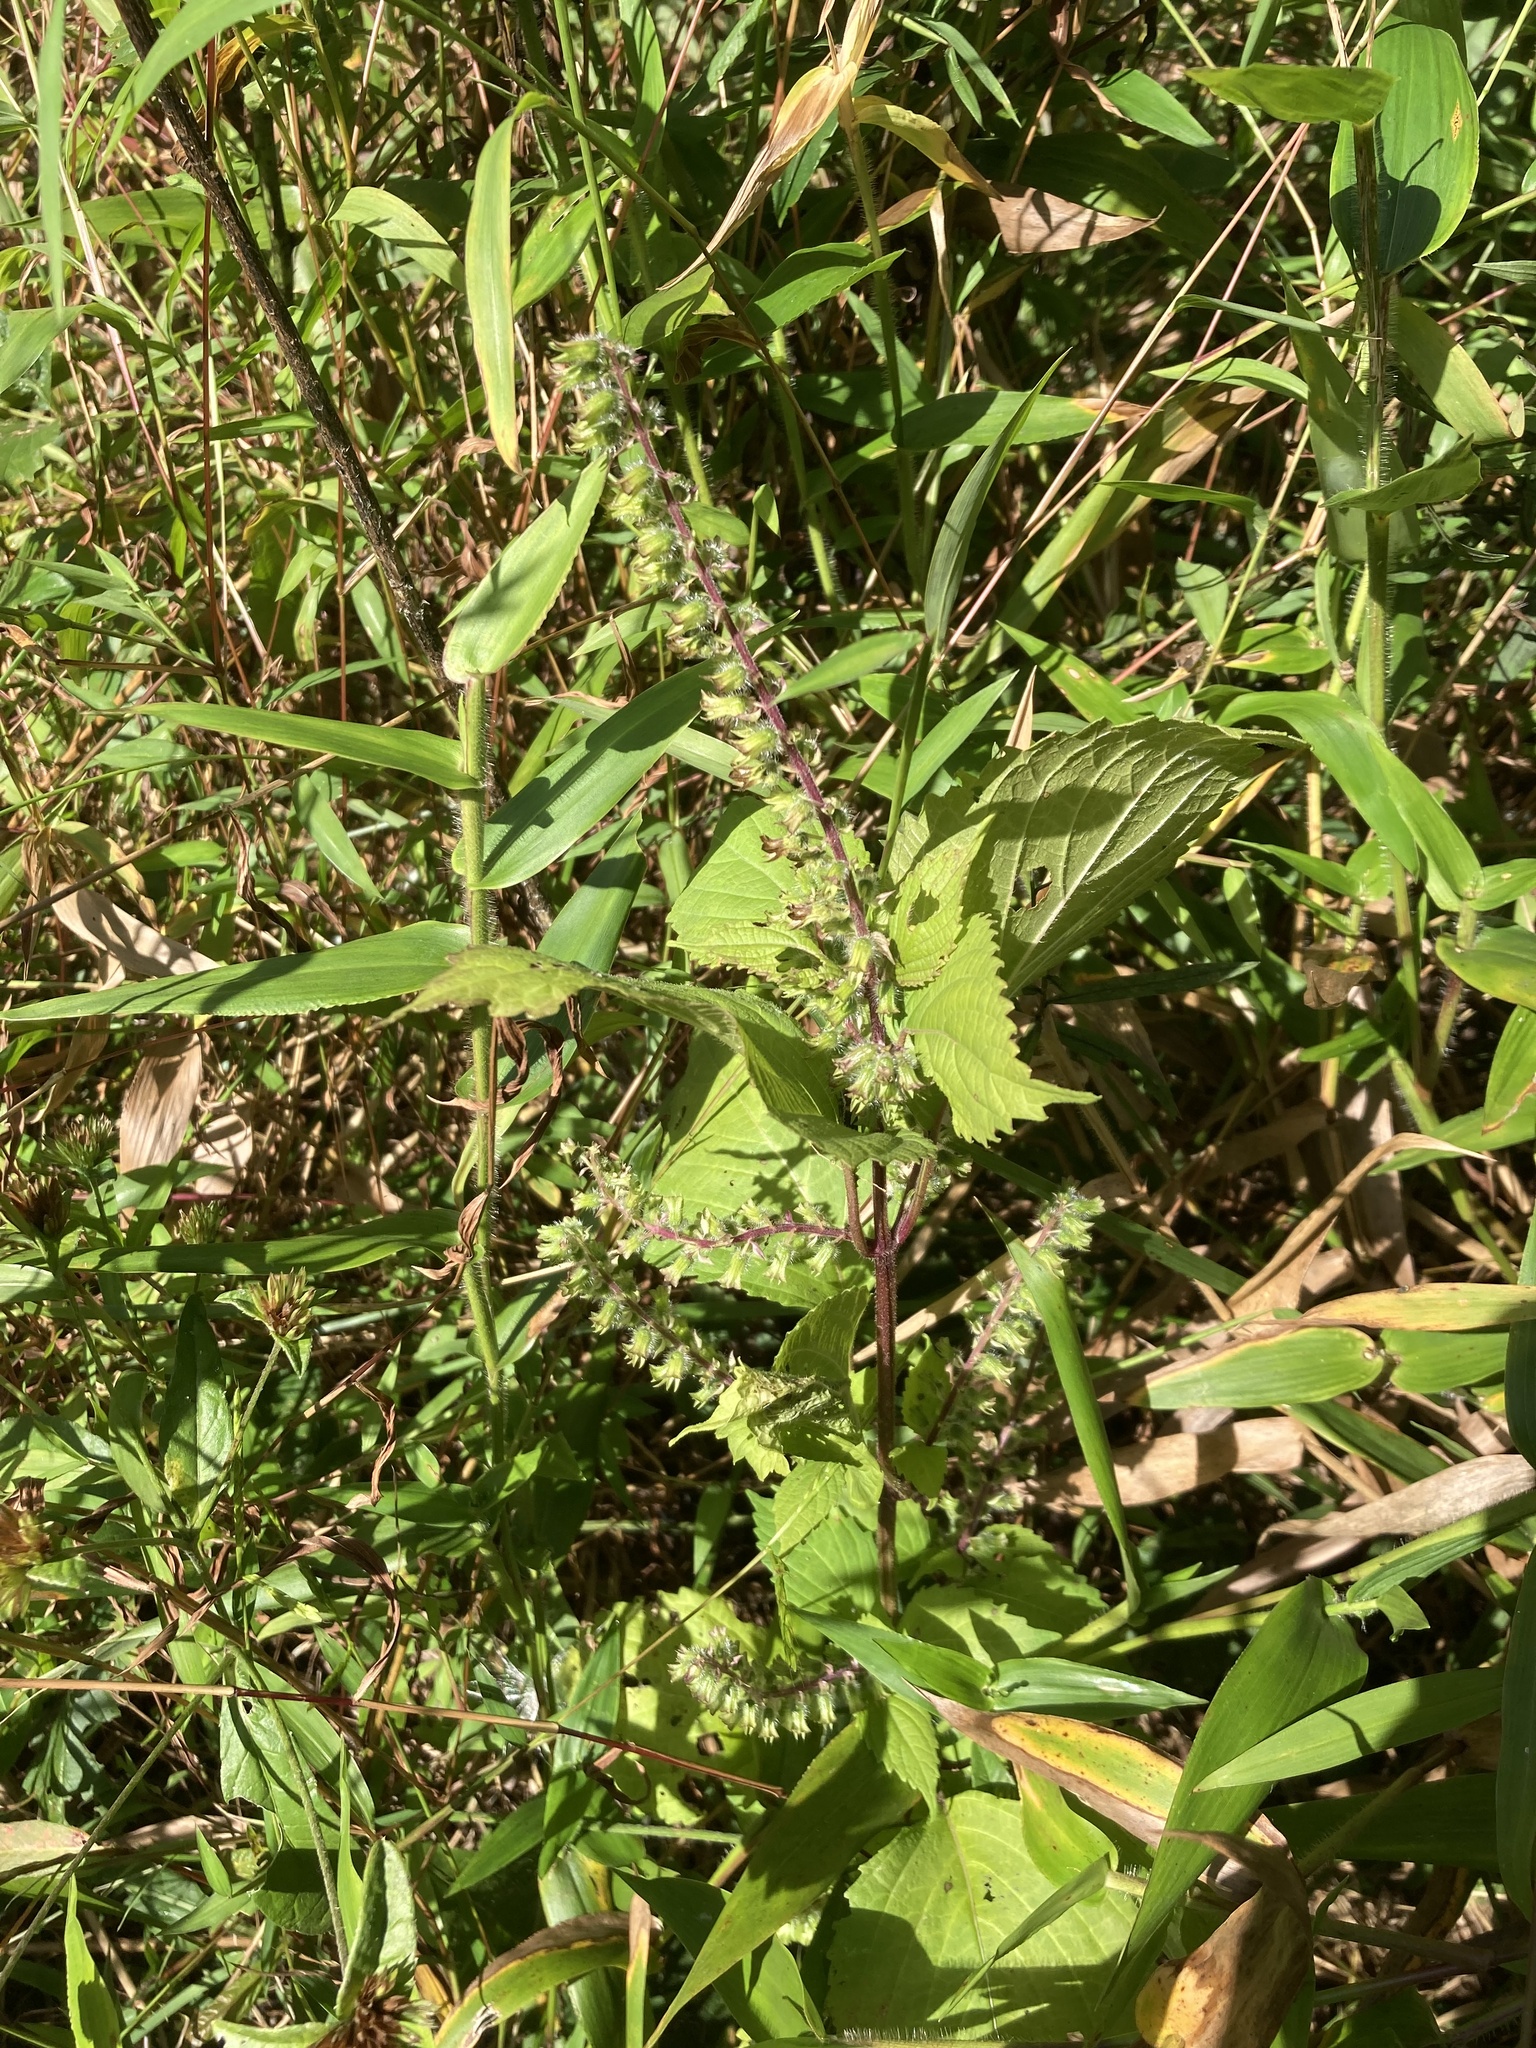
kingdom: Plantae
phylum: Tracheophyta
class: Magnoliopsida
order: Lamiales
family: Lamiaceae
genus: Perilla
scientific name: Perilla frutescens
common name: Perilla
